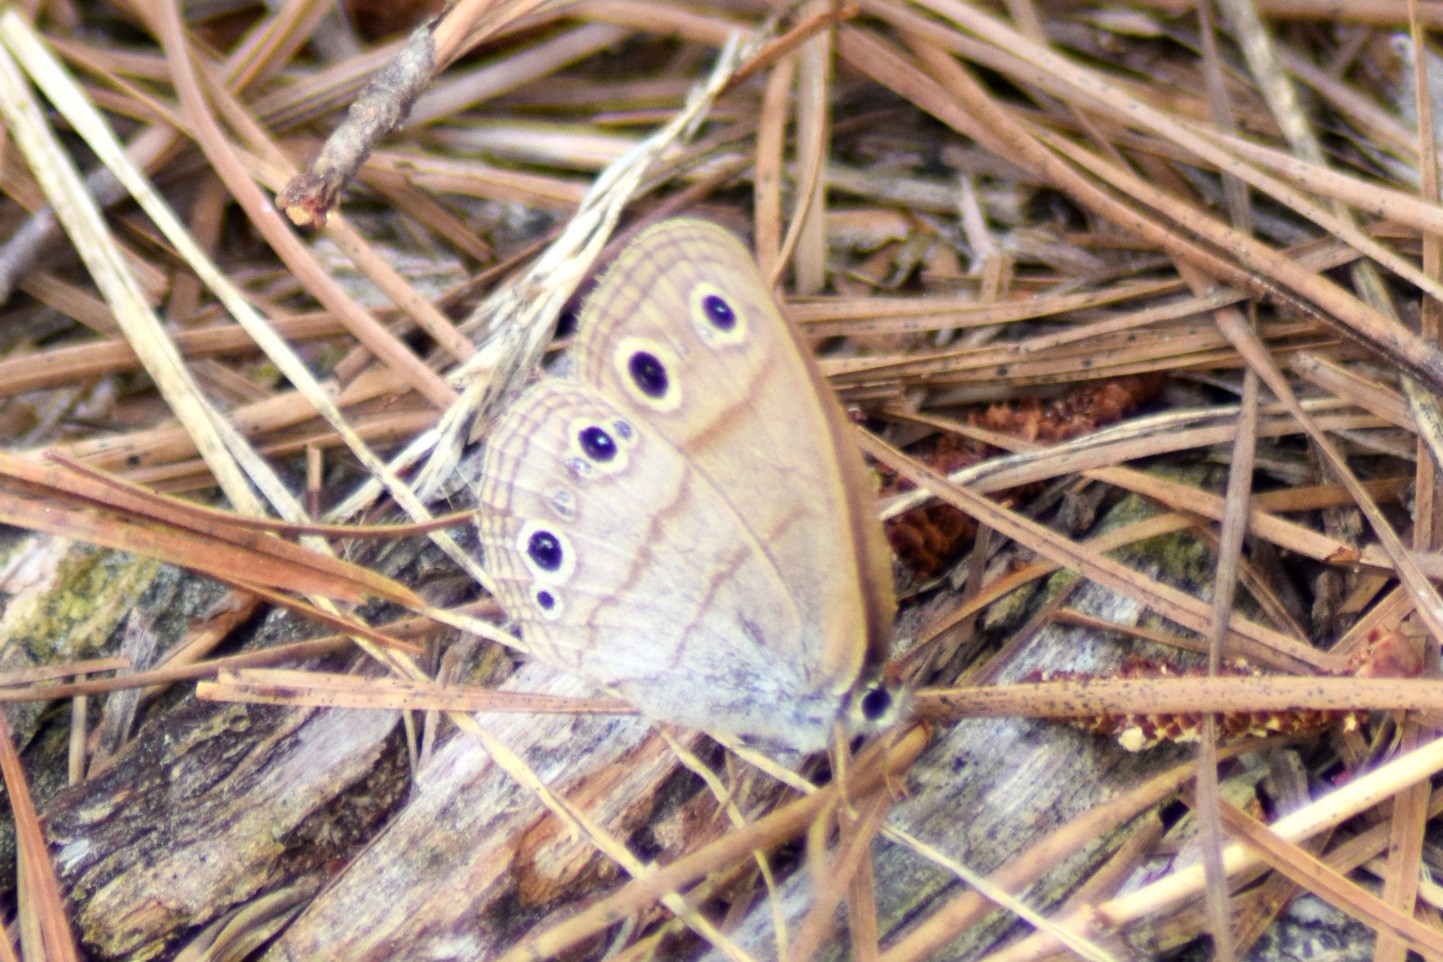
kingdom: Animalia
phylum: Arthropoda
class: Insecta
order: Lepidoptera
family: Nymphalidae
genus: Euptychia
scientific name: Euptychia cymela
